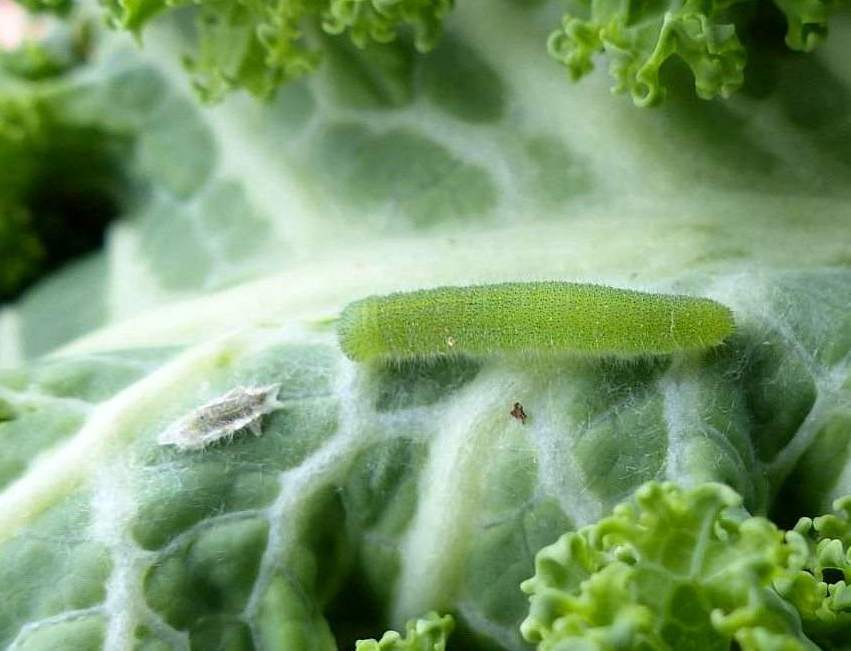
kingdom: Animalia
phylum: Arthropoda
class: Insecta
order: Lepidoptera
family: Pieridae
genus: Pieris
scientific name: Pieris rapae
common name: Small white
